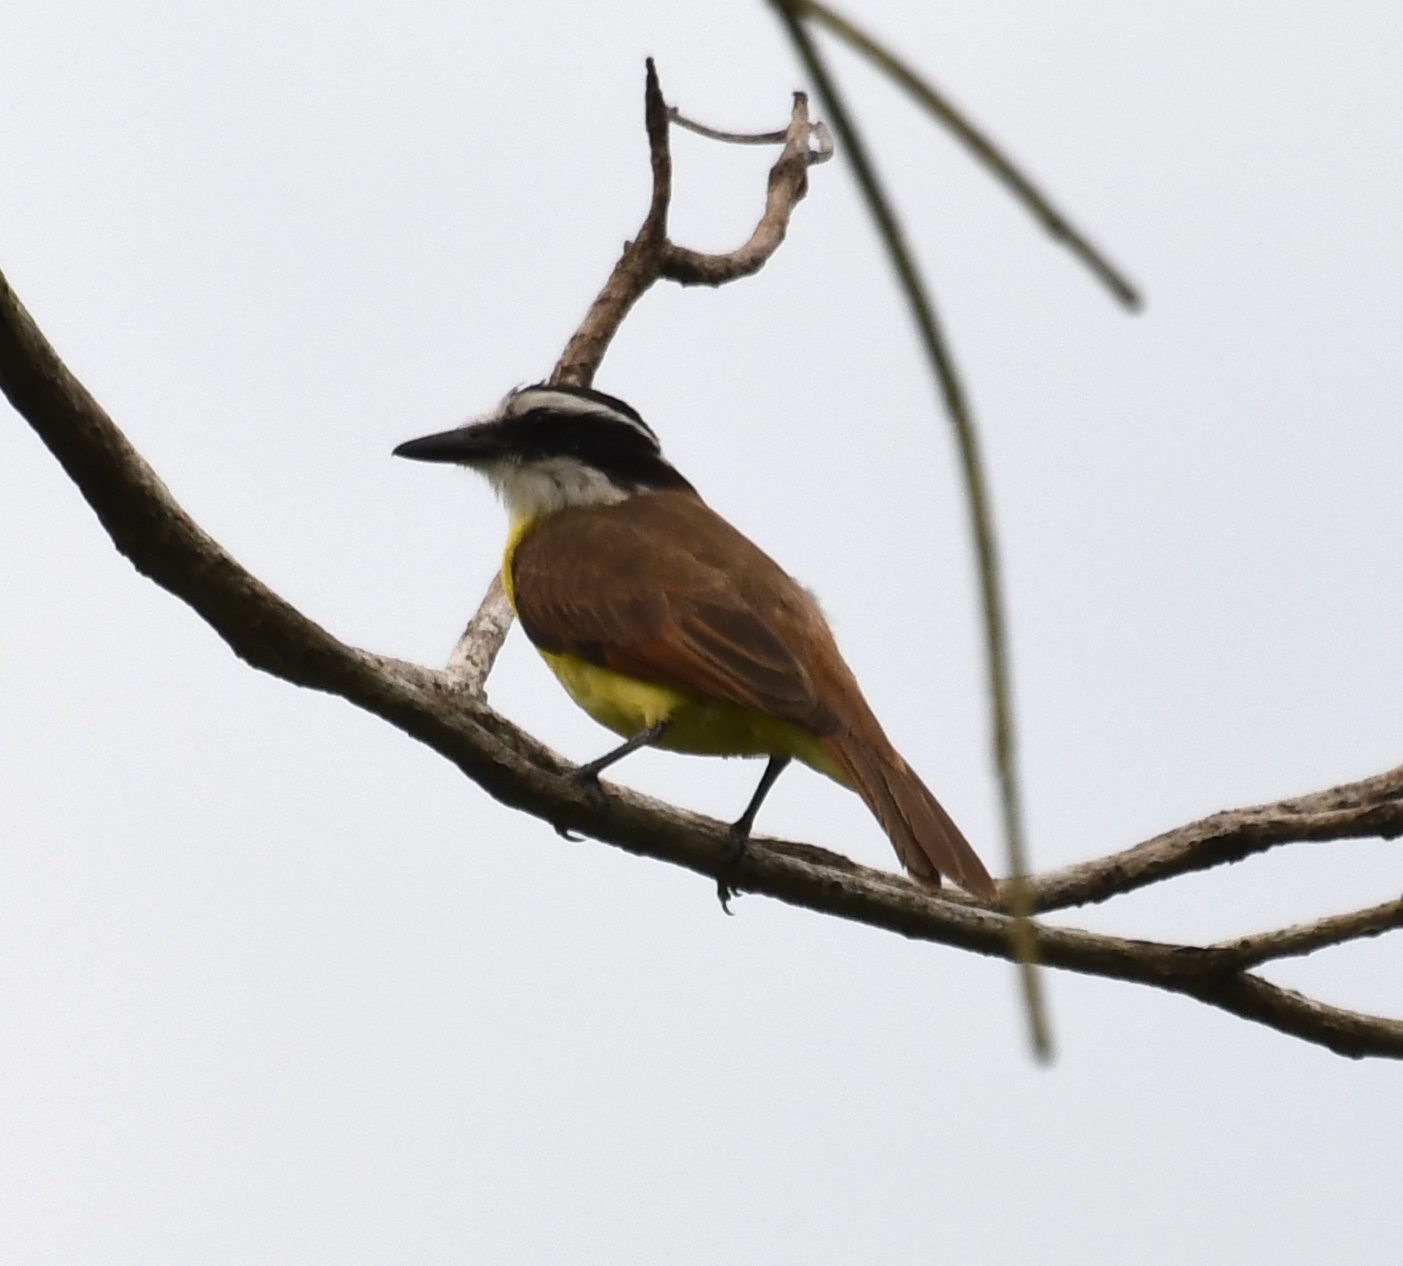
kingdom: Animalia
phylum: Chordata
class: Aves
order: Passeriformes
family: Tyrannidae
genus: Pitangus
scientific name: Pitangus sulphuratus
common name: Great kiskadee
